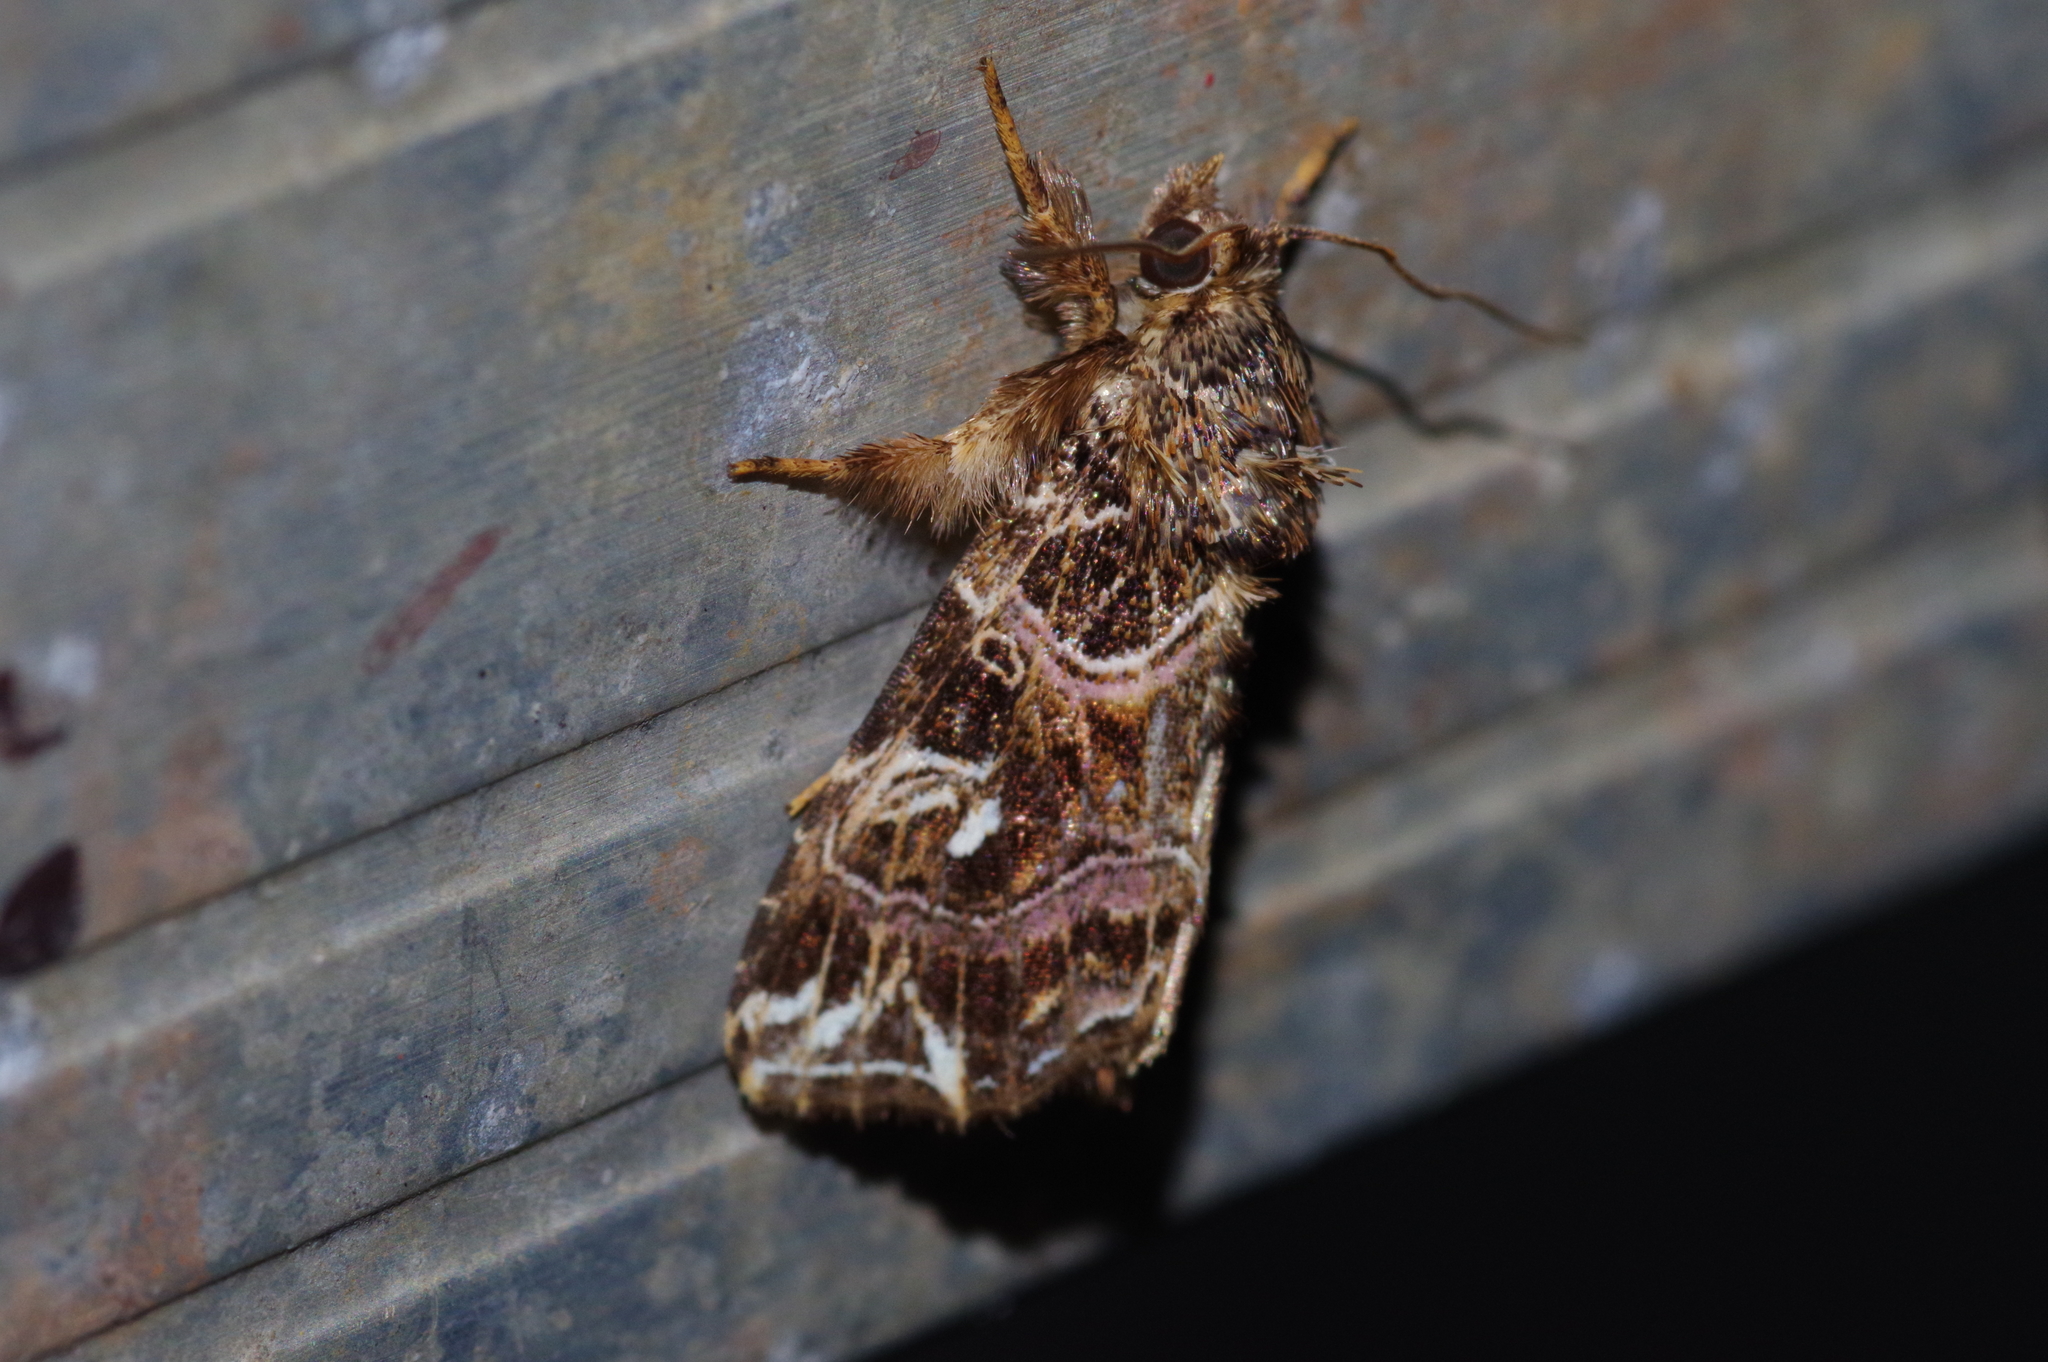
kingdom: Animalia
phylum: Arthropoda
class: Insecta
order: Lepidoptera
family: Noctuidae
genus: Callopistria
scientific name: Callopistria duplicans
